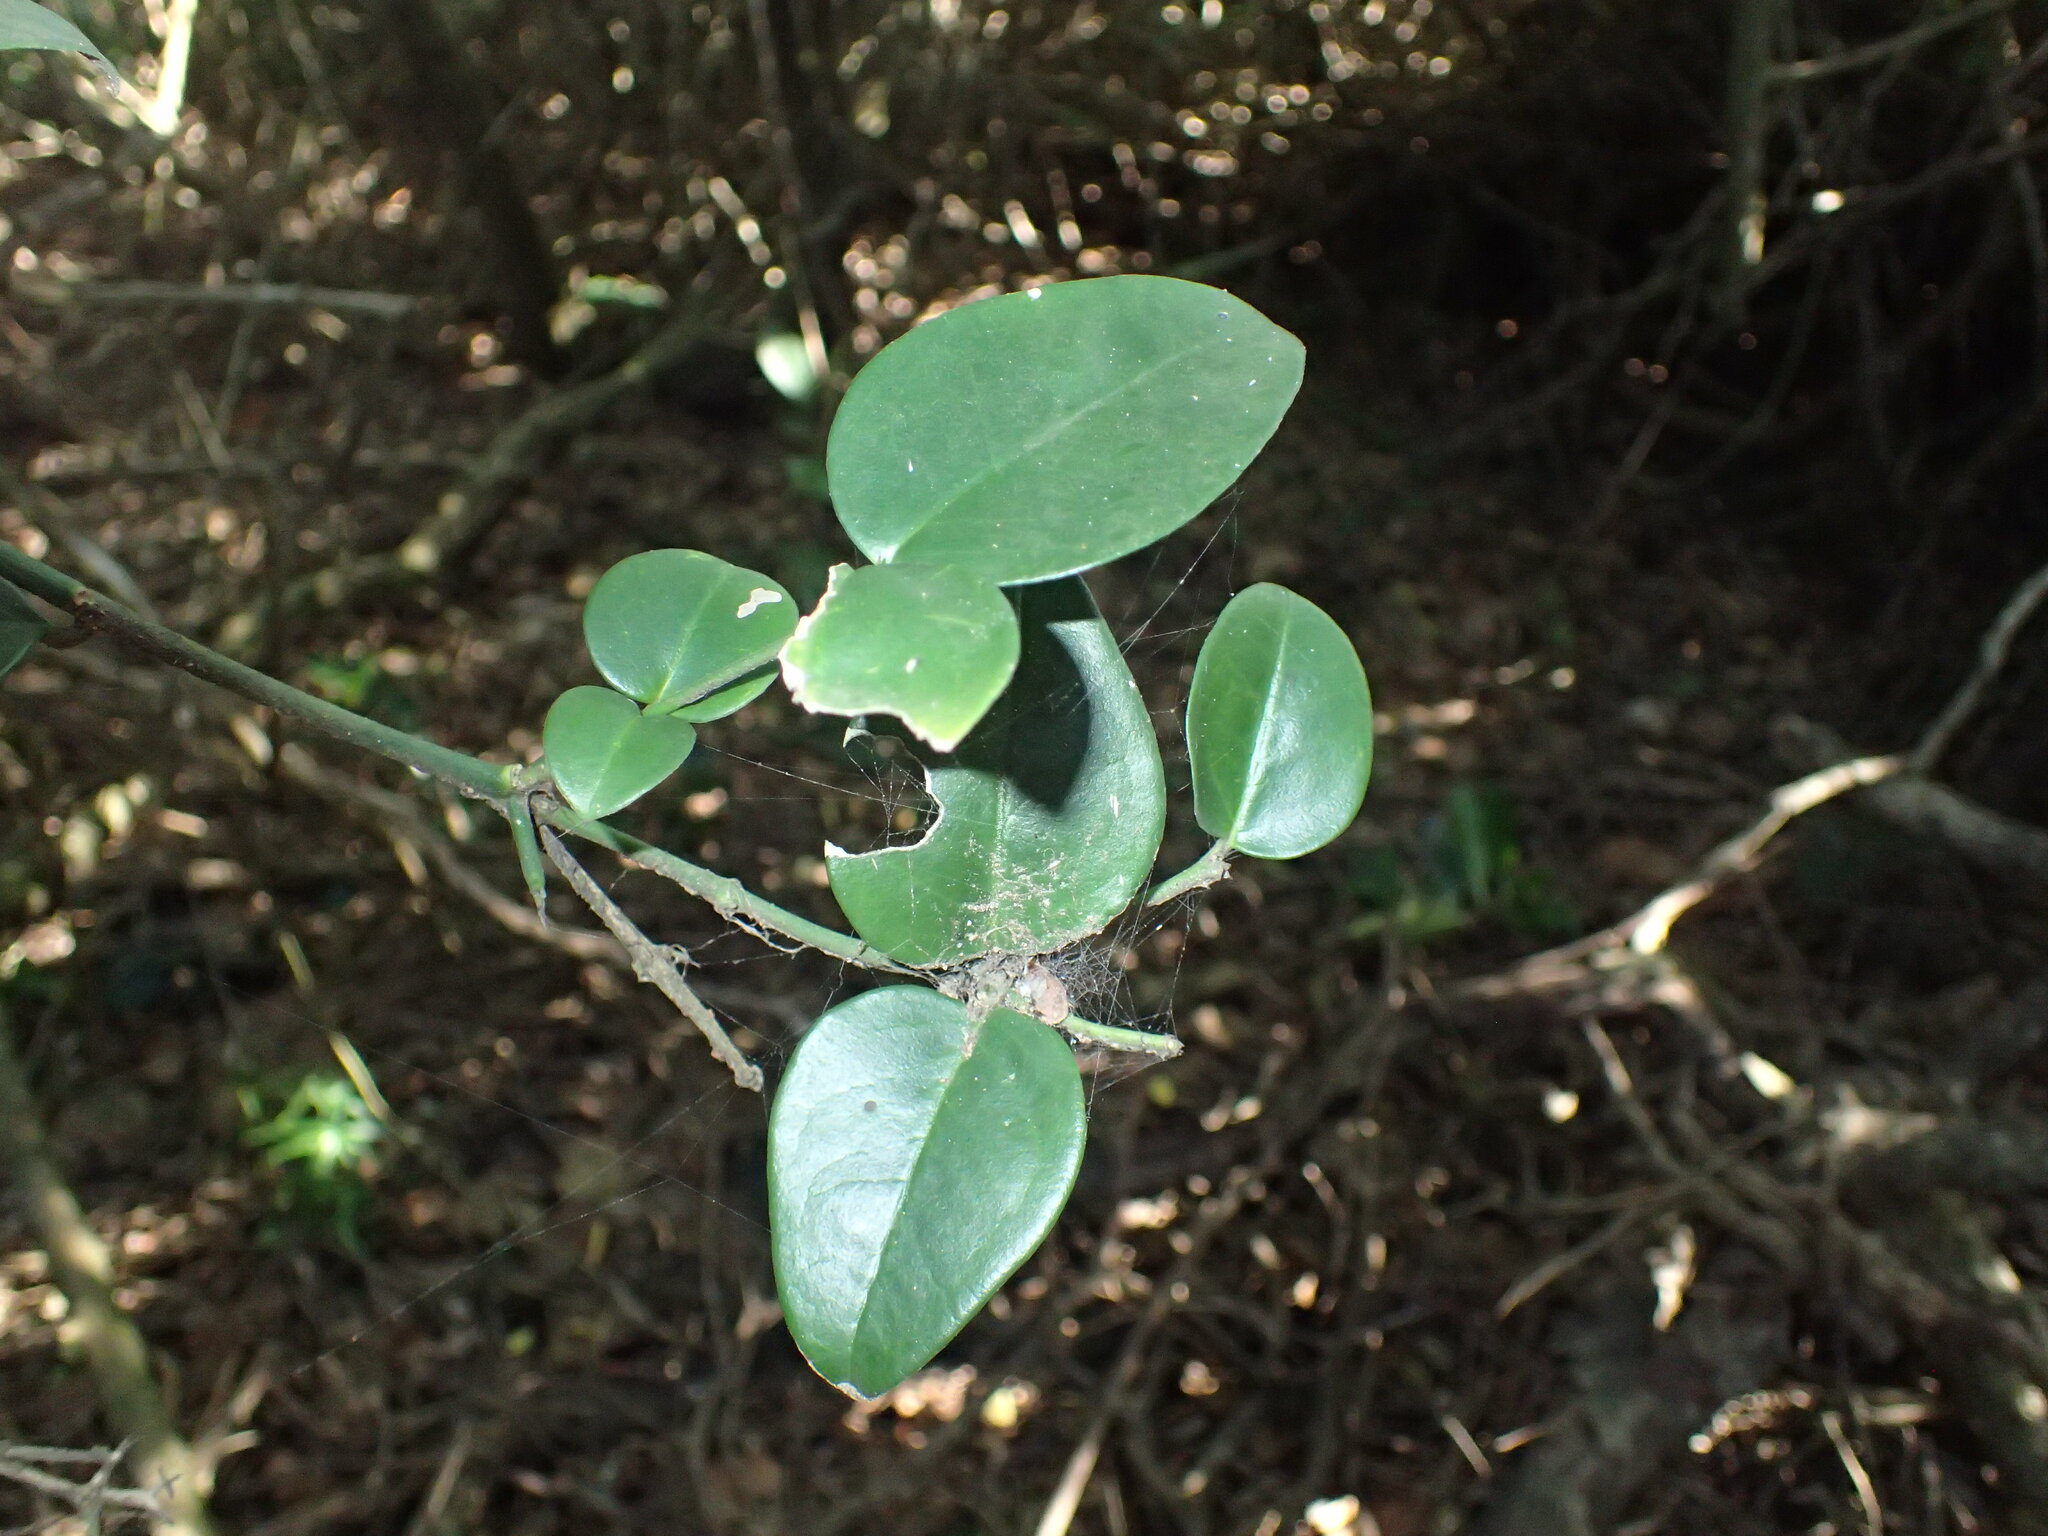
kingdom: Plantae
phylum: Tracheophyta
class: Magnoliopsida
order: Gentianales
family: Apocynaceae
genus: Carissa
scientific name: Carissa bispinosa
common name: Forest num-num
